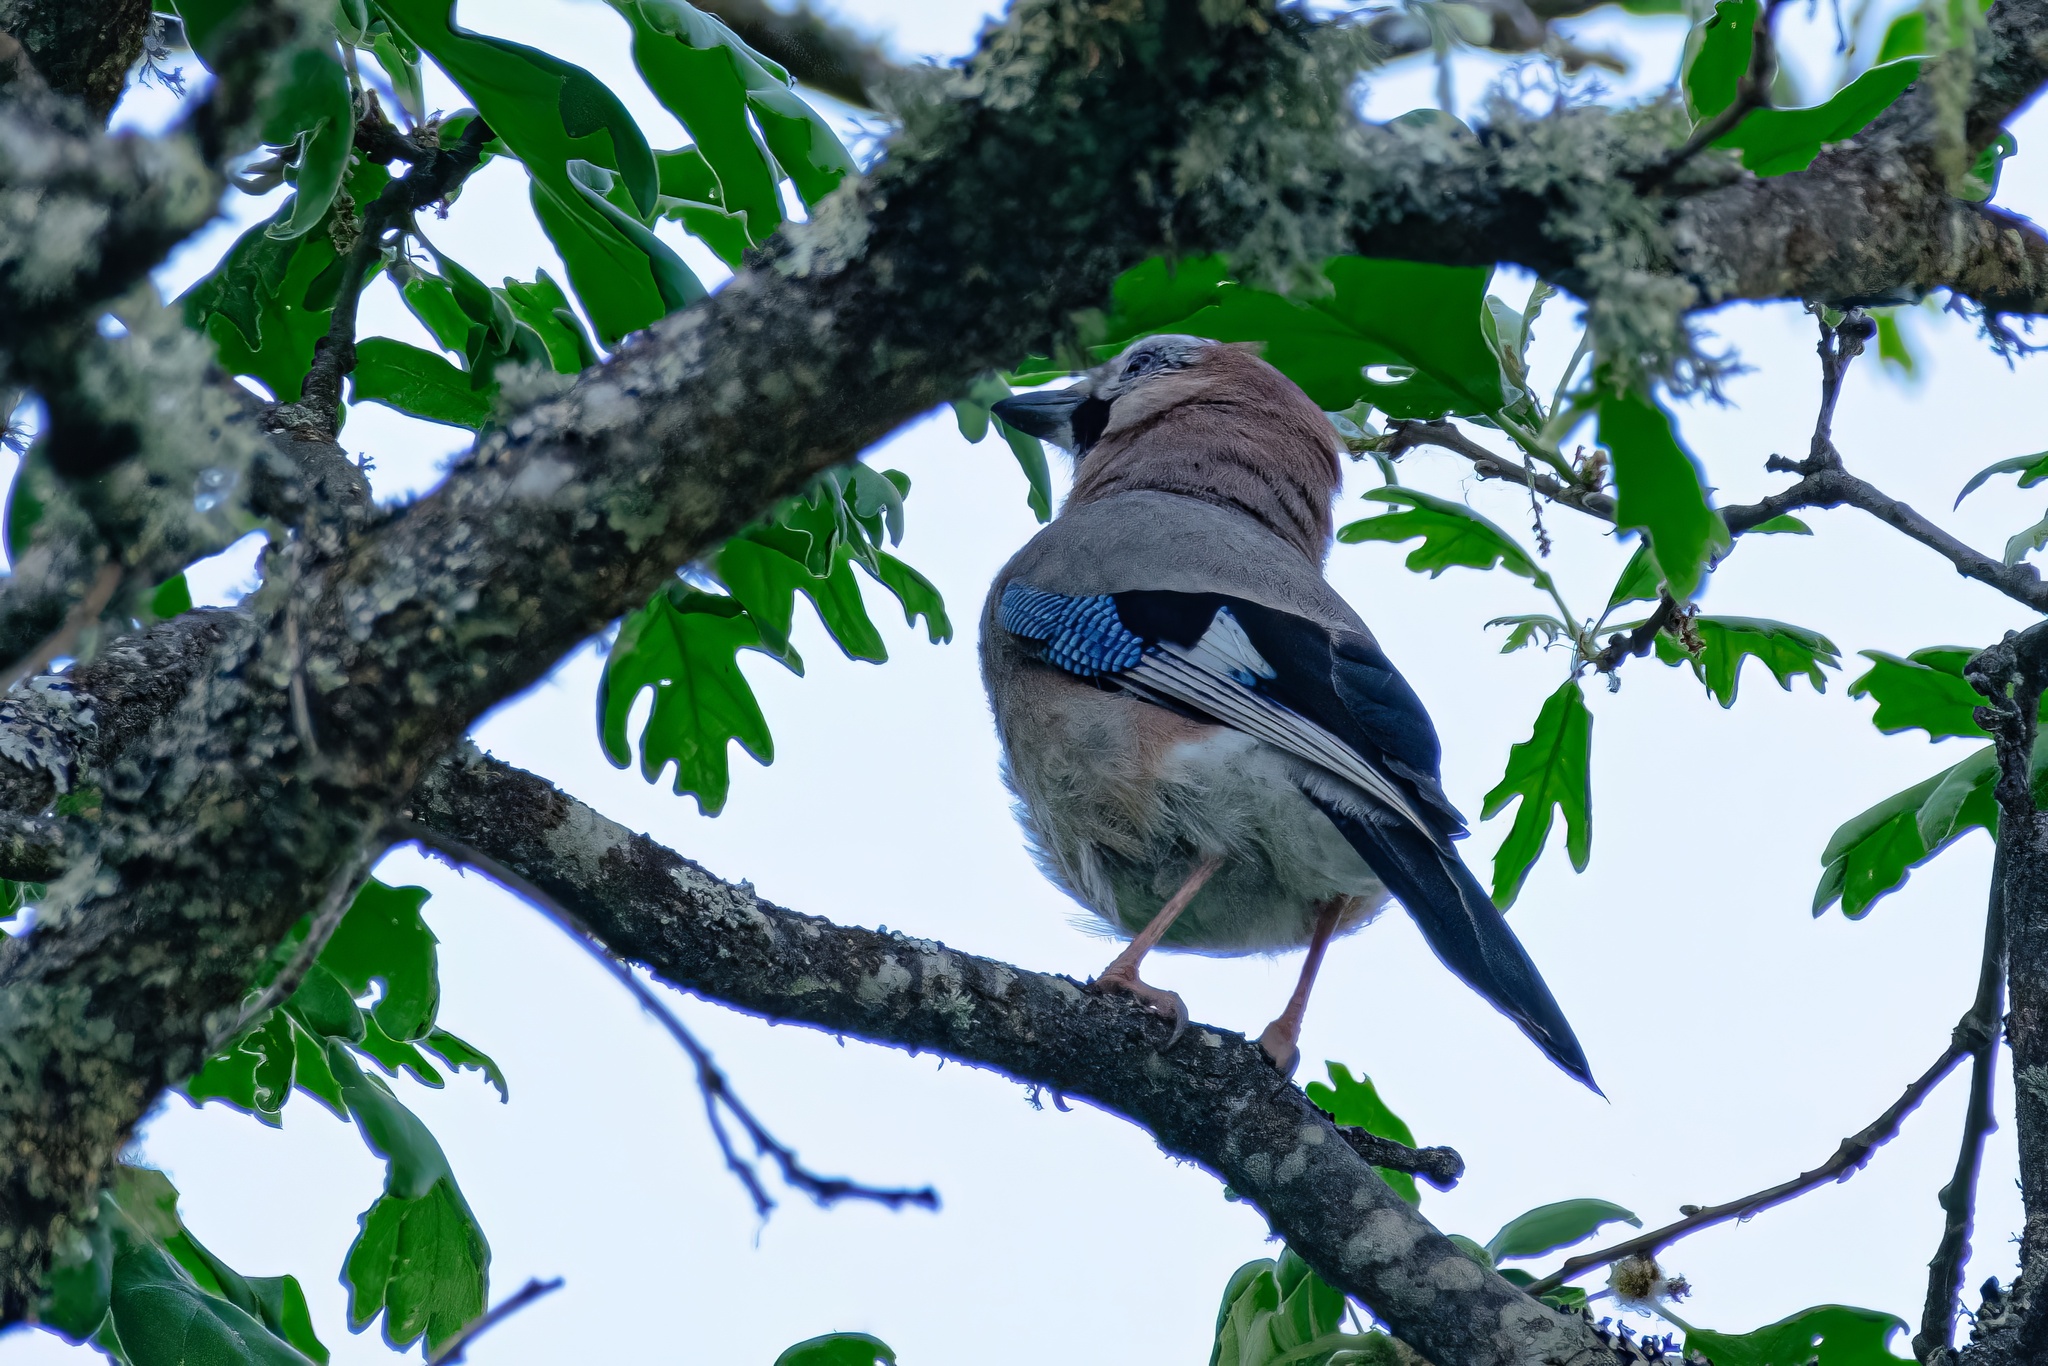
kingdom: Animalia
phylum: Chordata
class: Aves
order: Passeriformes
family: Corvidae
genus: Garrulus
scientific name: Garrulus glandarius
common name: Eurasian jay
